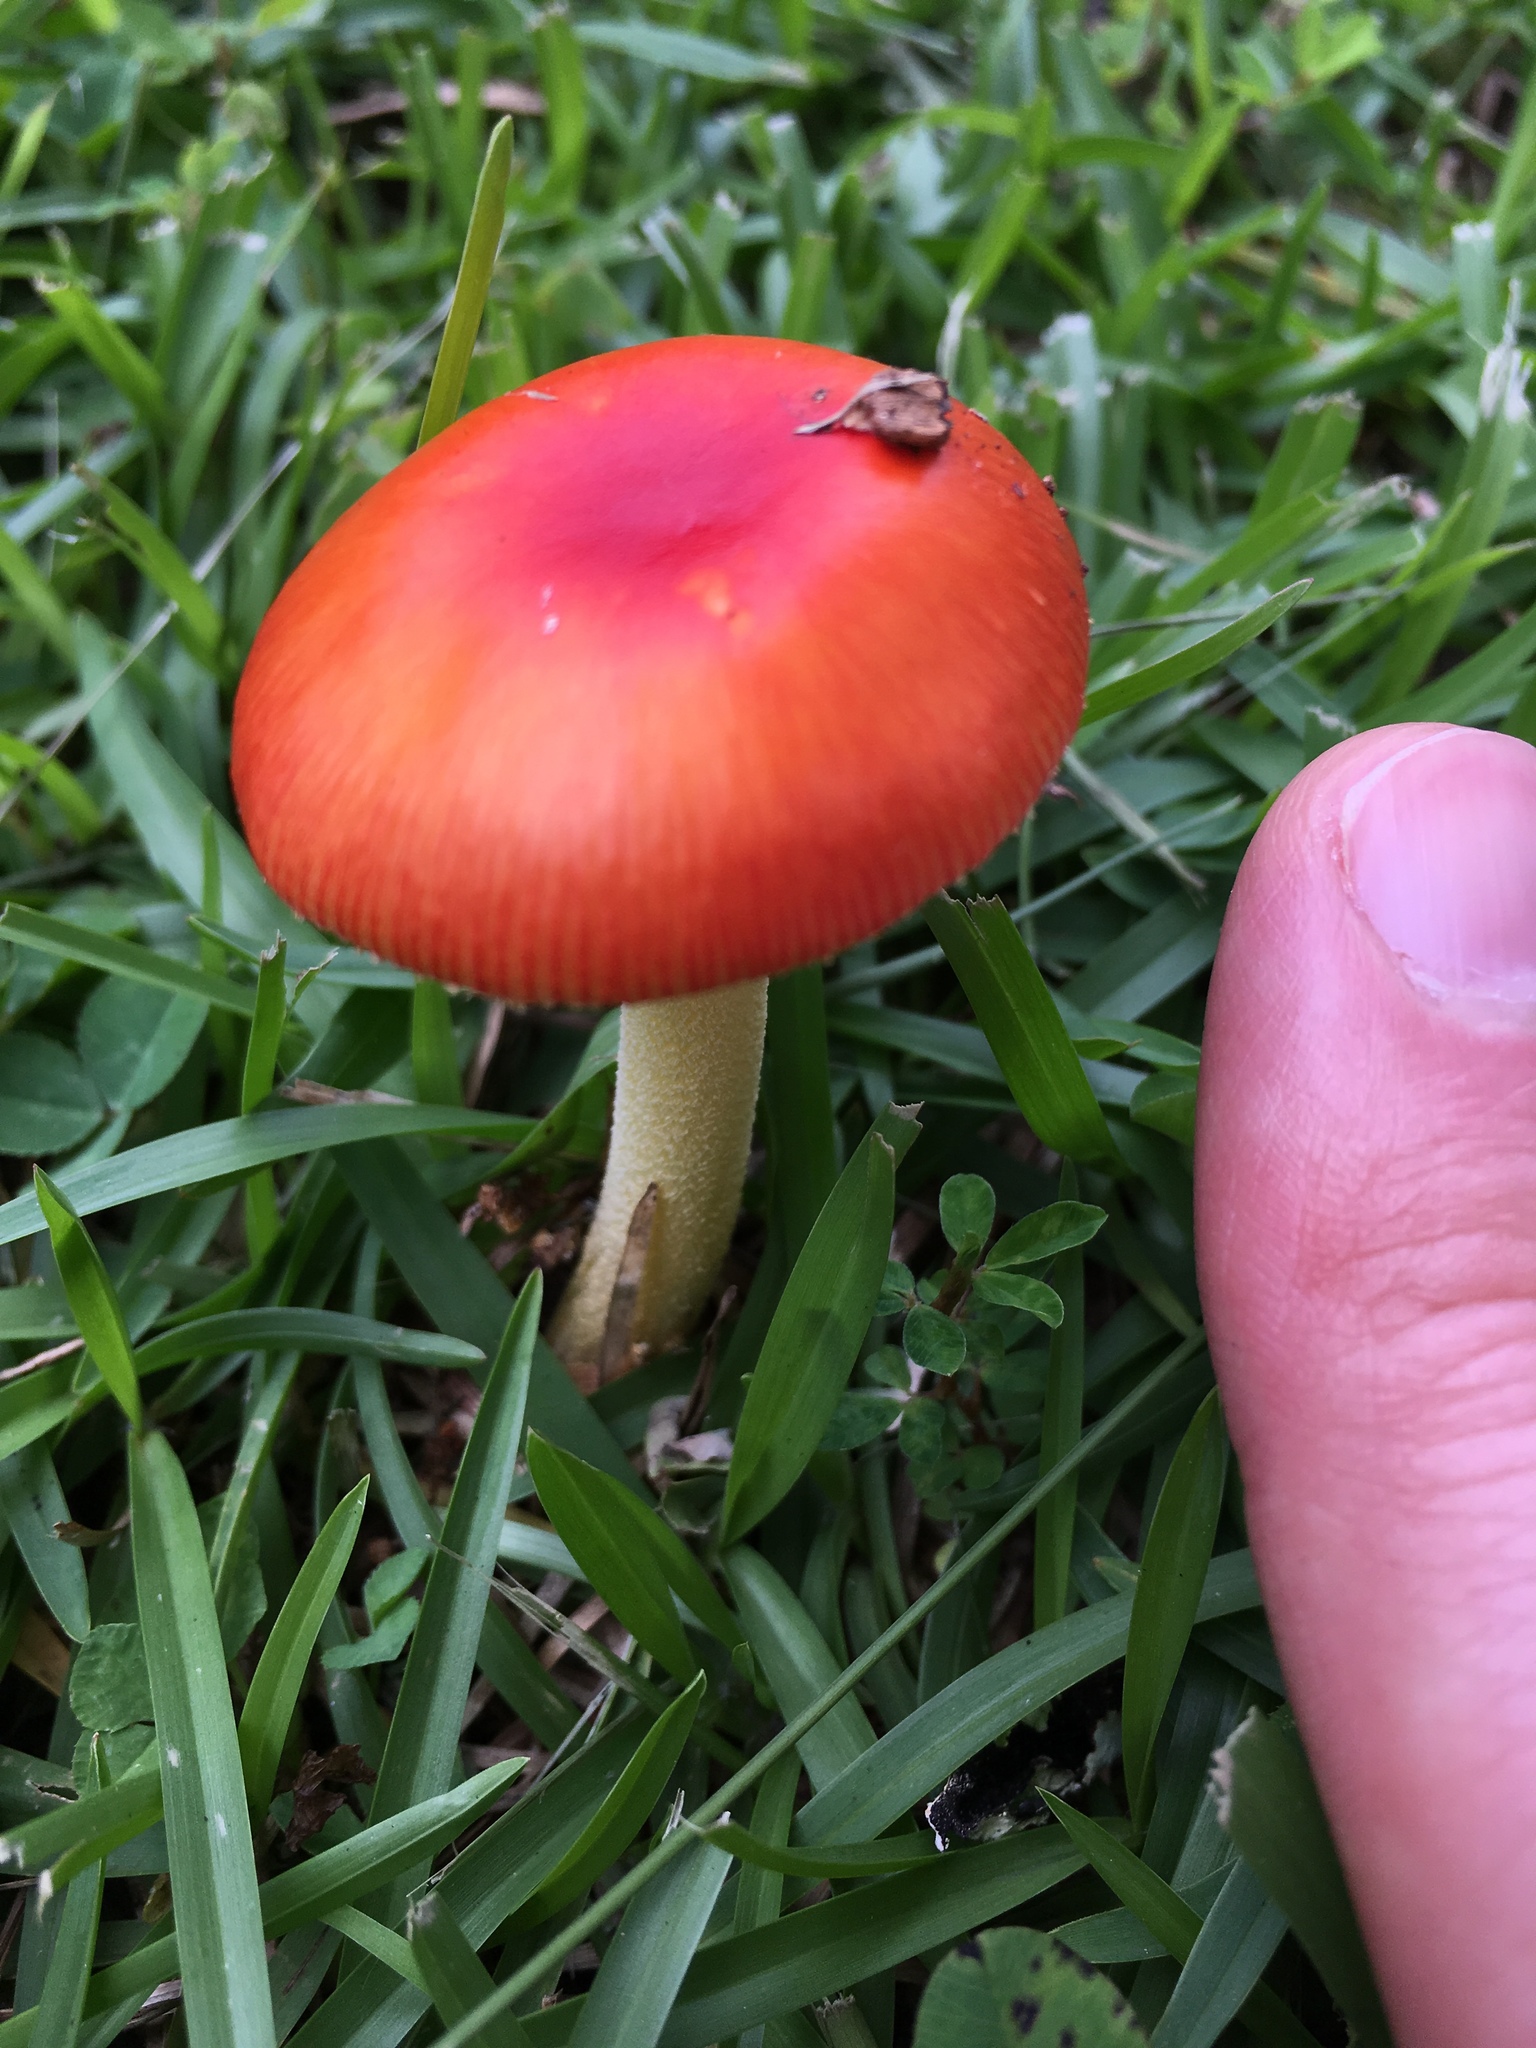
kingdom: Fungi
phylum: Basidiomycota
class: Agaricomycetes
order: Agaricales
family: Amanitaceae
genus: Amanita
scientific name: Amanita parcivolvata
